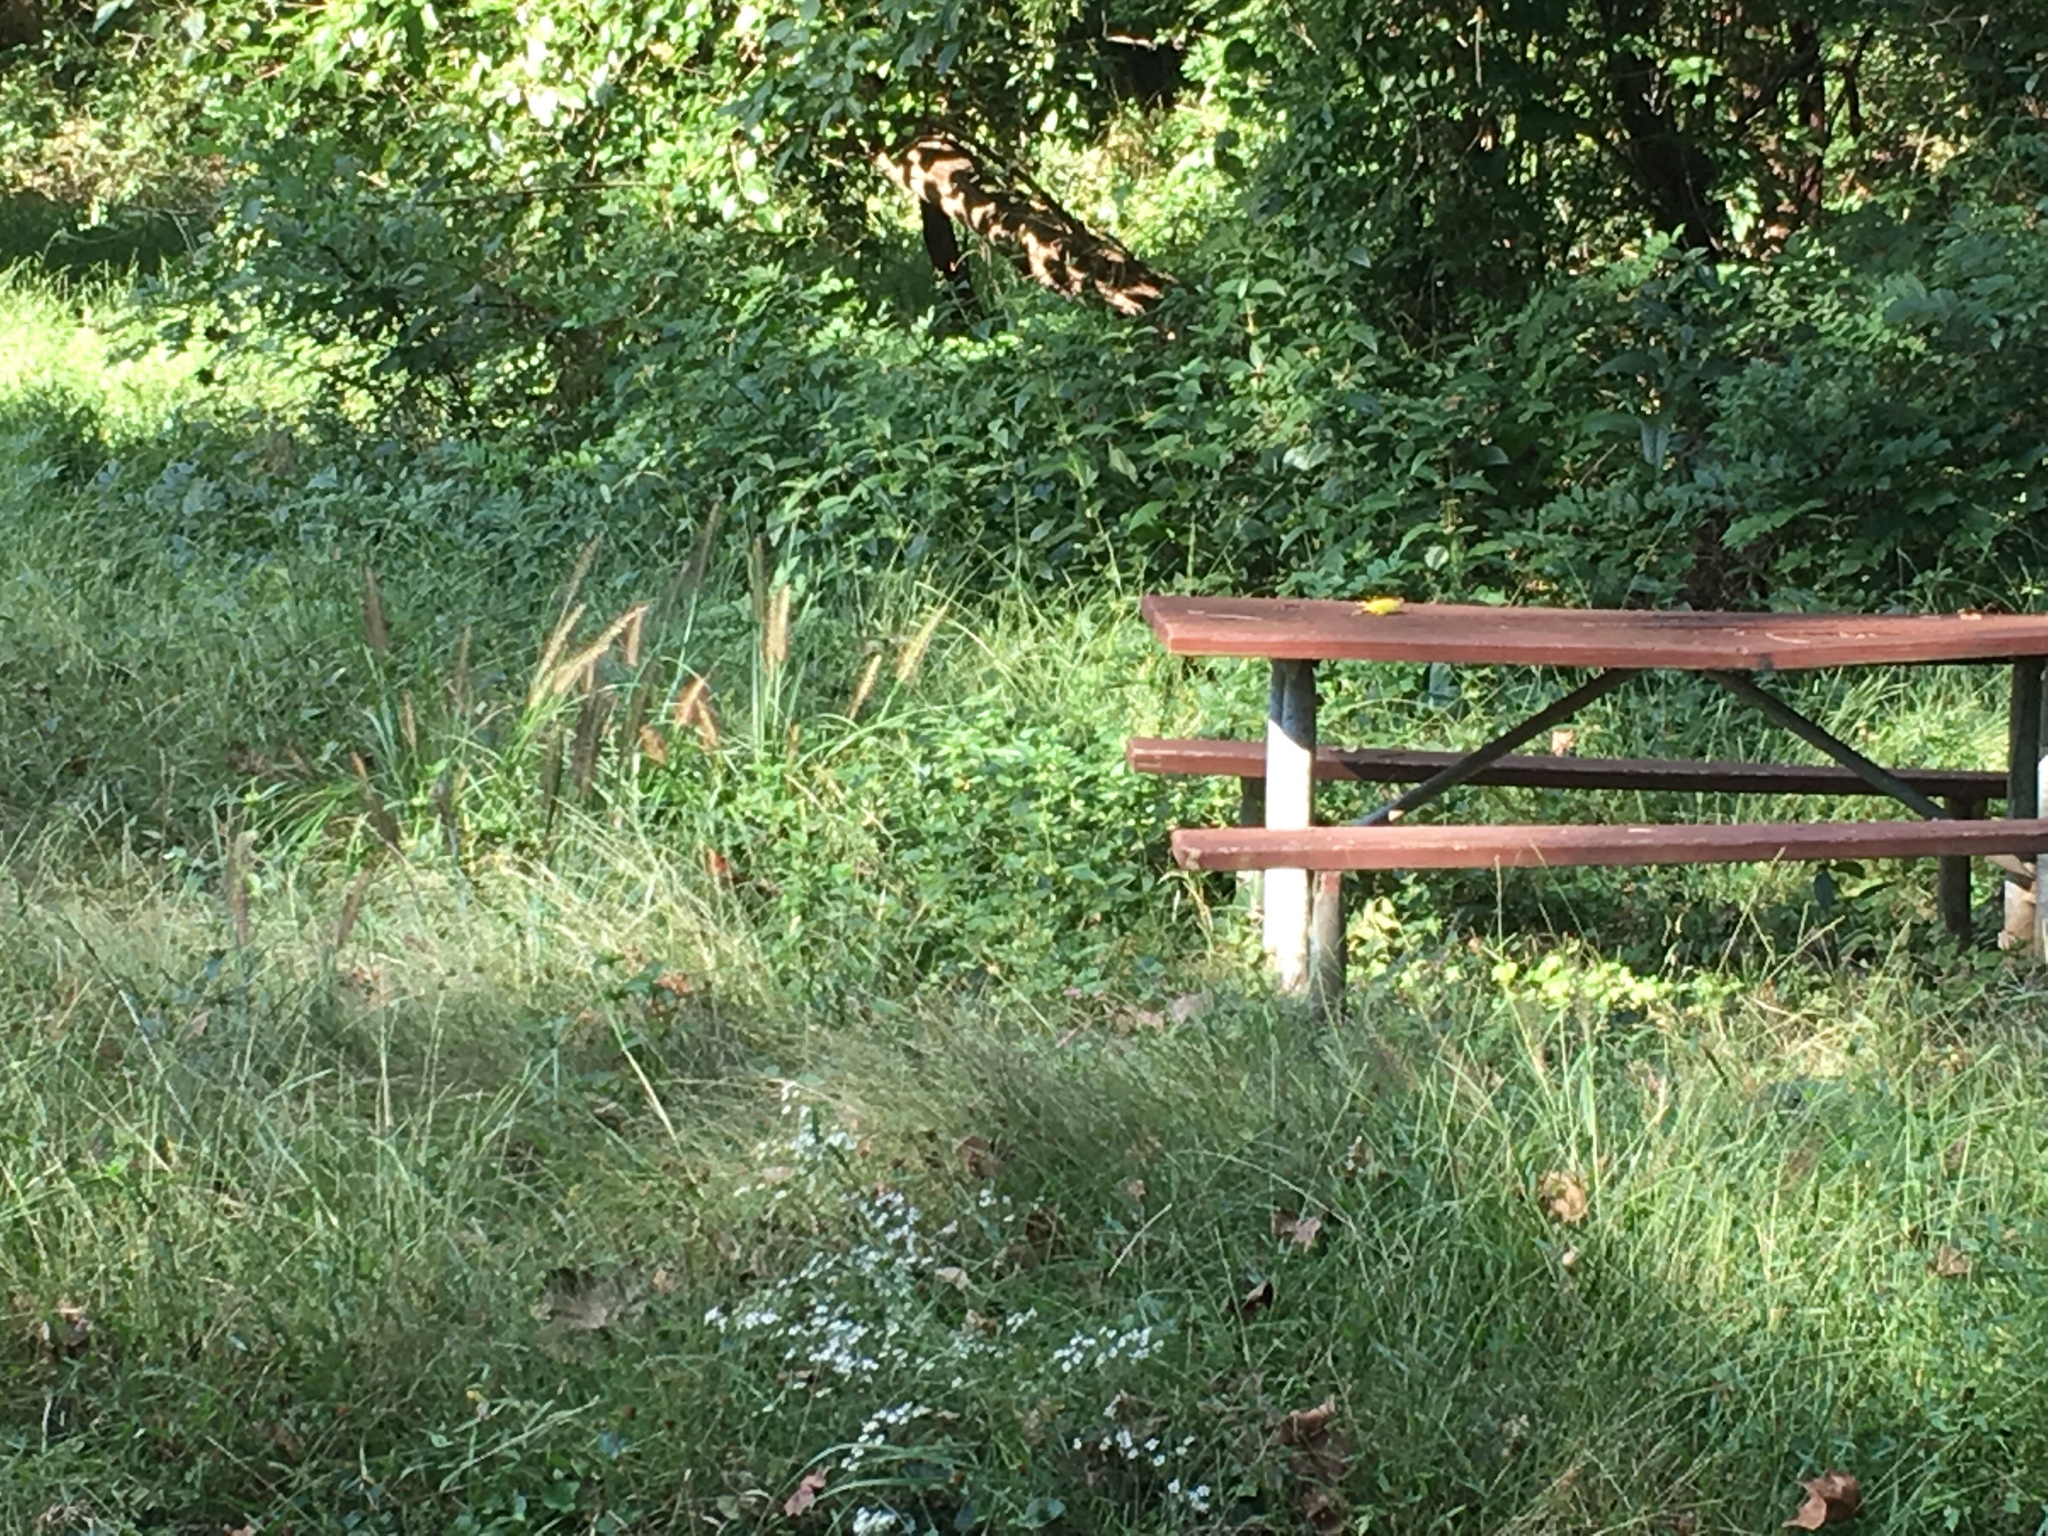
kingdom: Plantae
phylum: Tracheophyta
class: Liliopsida
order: Poales
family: Poaceae
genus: Cenchrus
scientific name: Cenchrus alopecuroides
